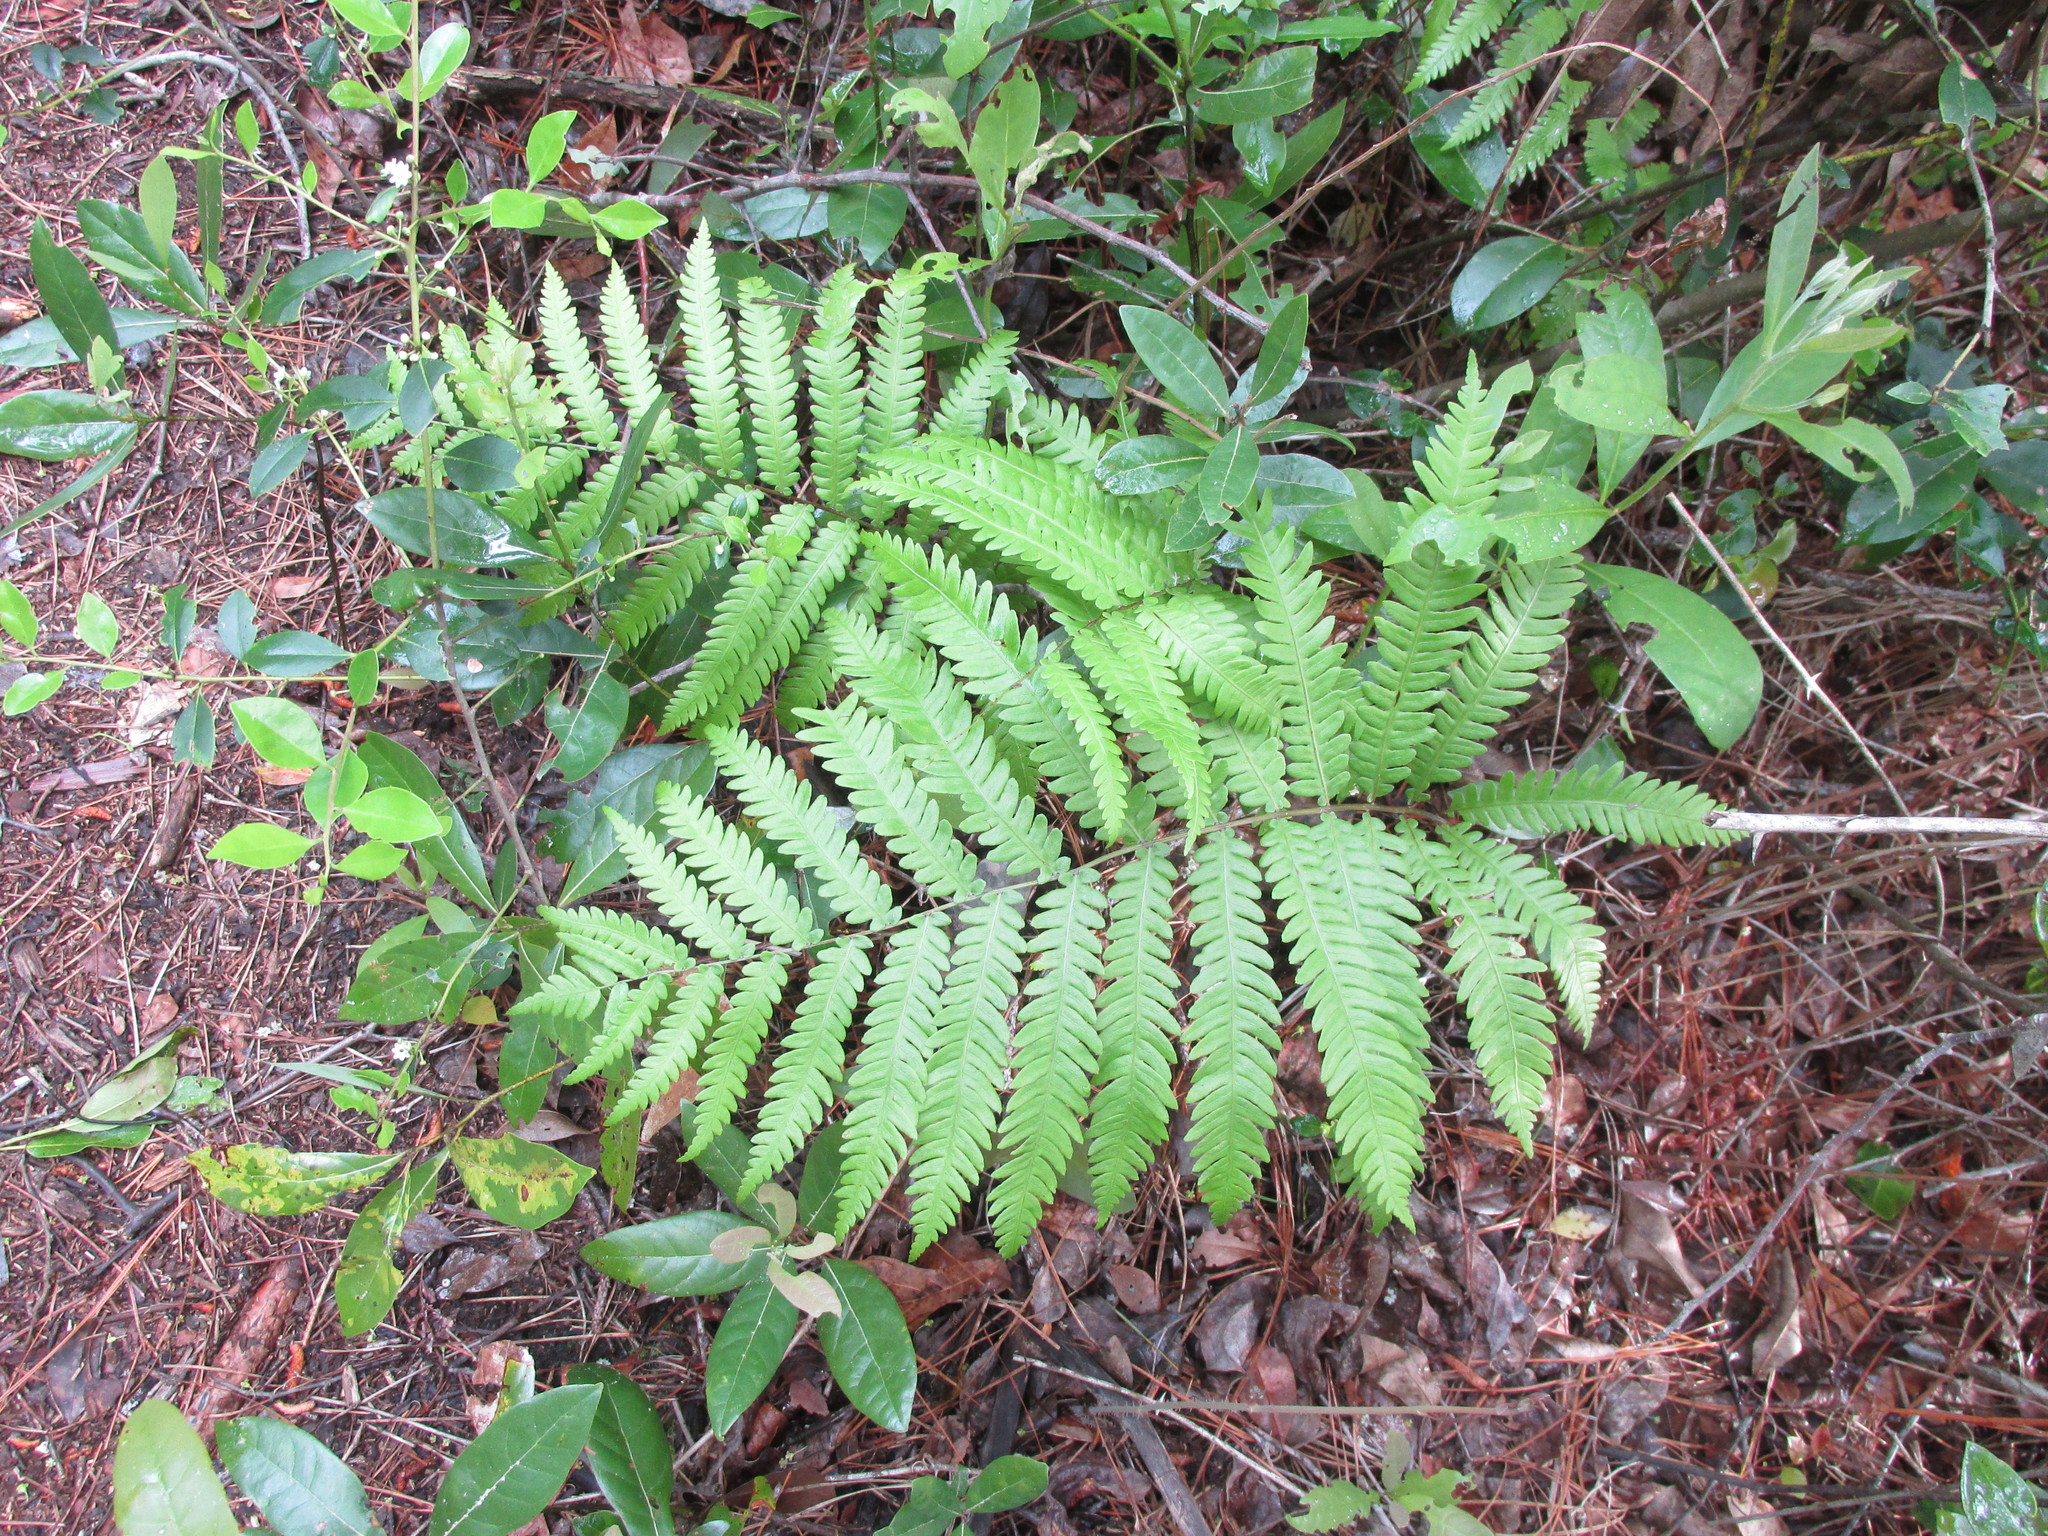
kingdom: Plantae
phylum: Tracheophyta
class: Polypodiopsida
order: Polypodiales
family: Blechnaceae
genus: Anchistea
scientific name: Anchistea virginica
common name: Virginia chain fern
